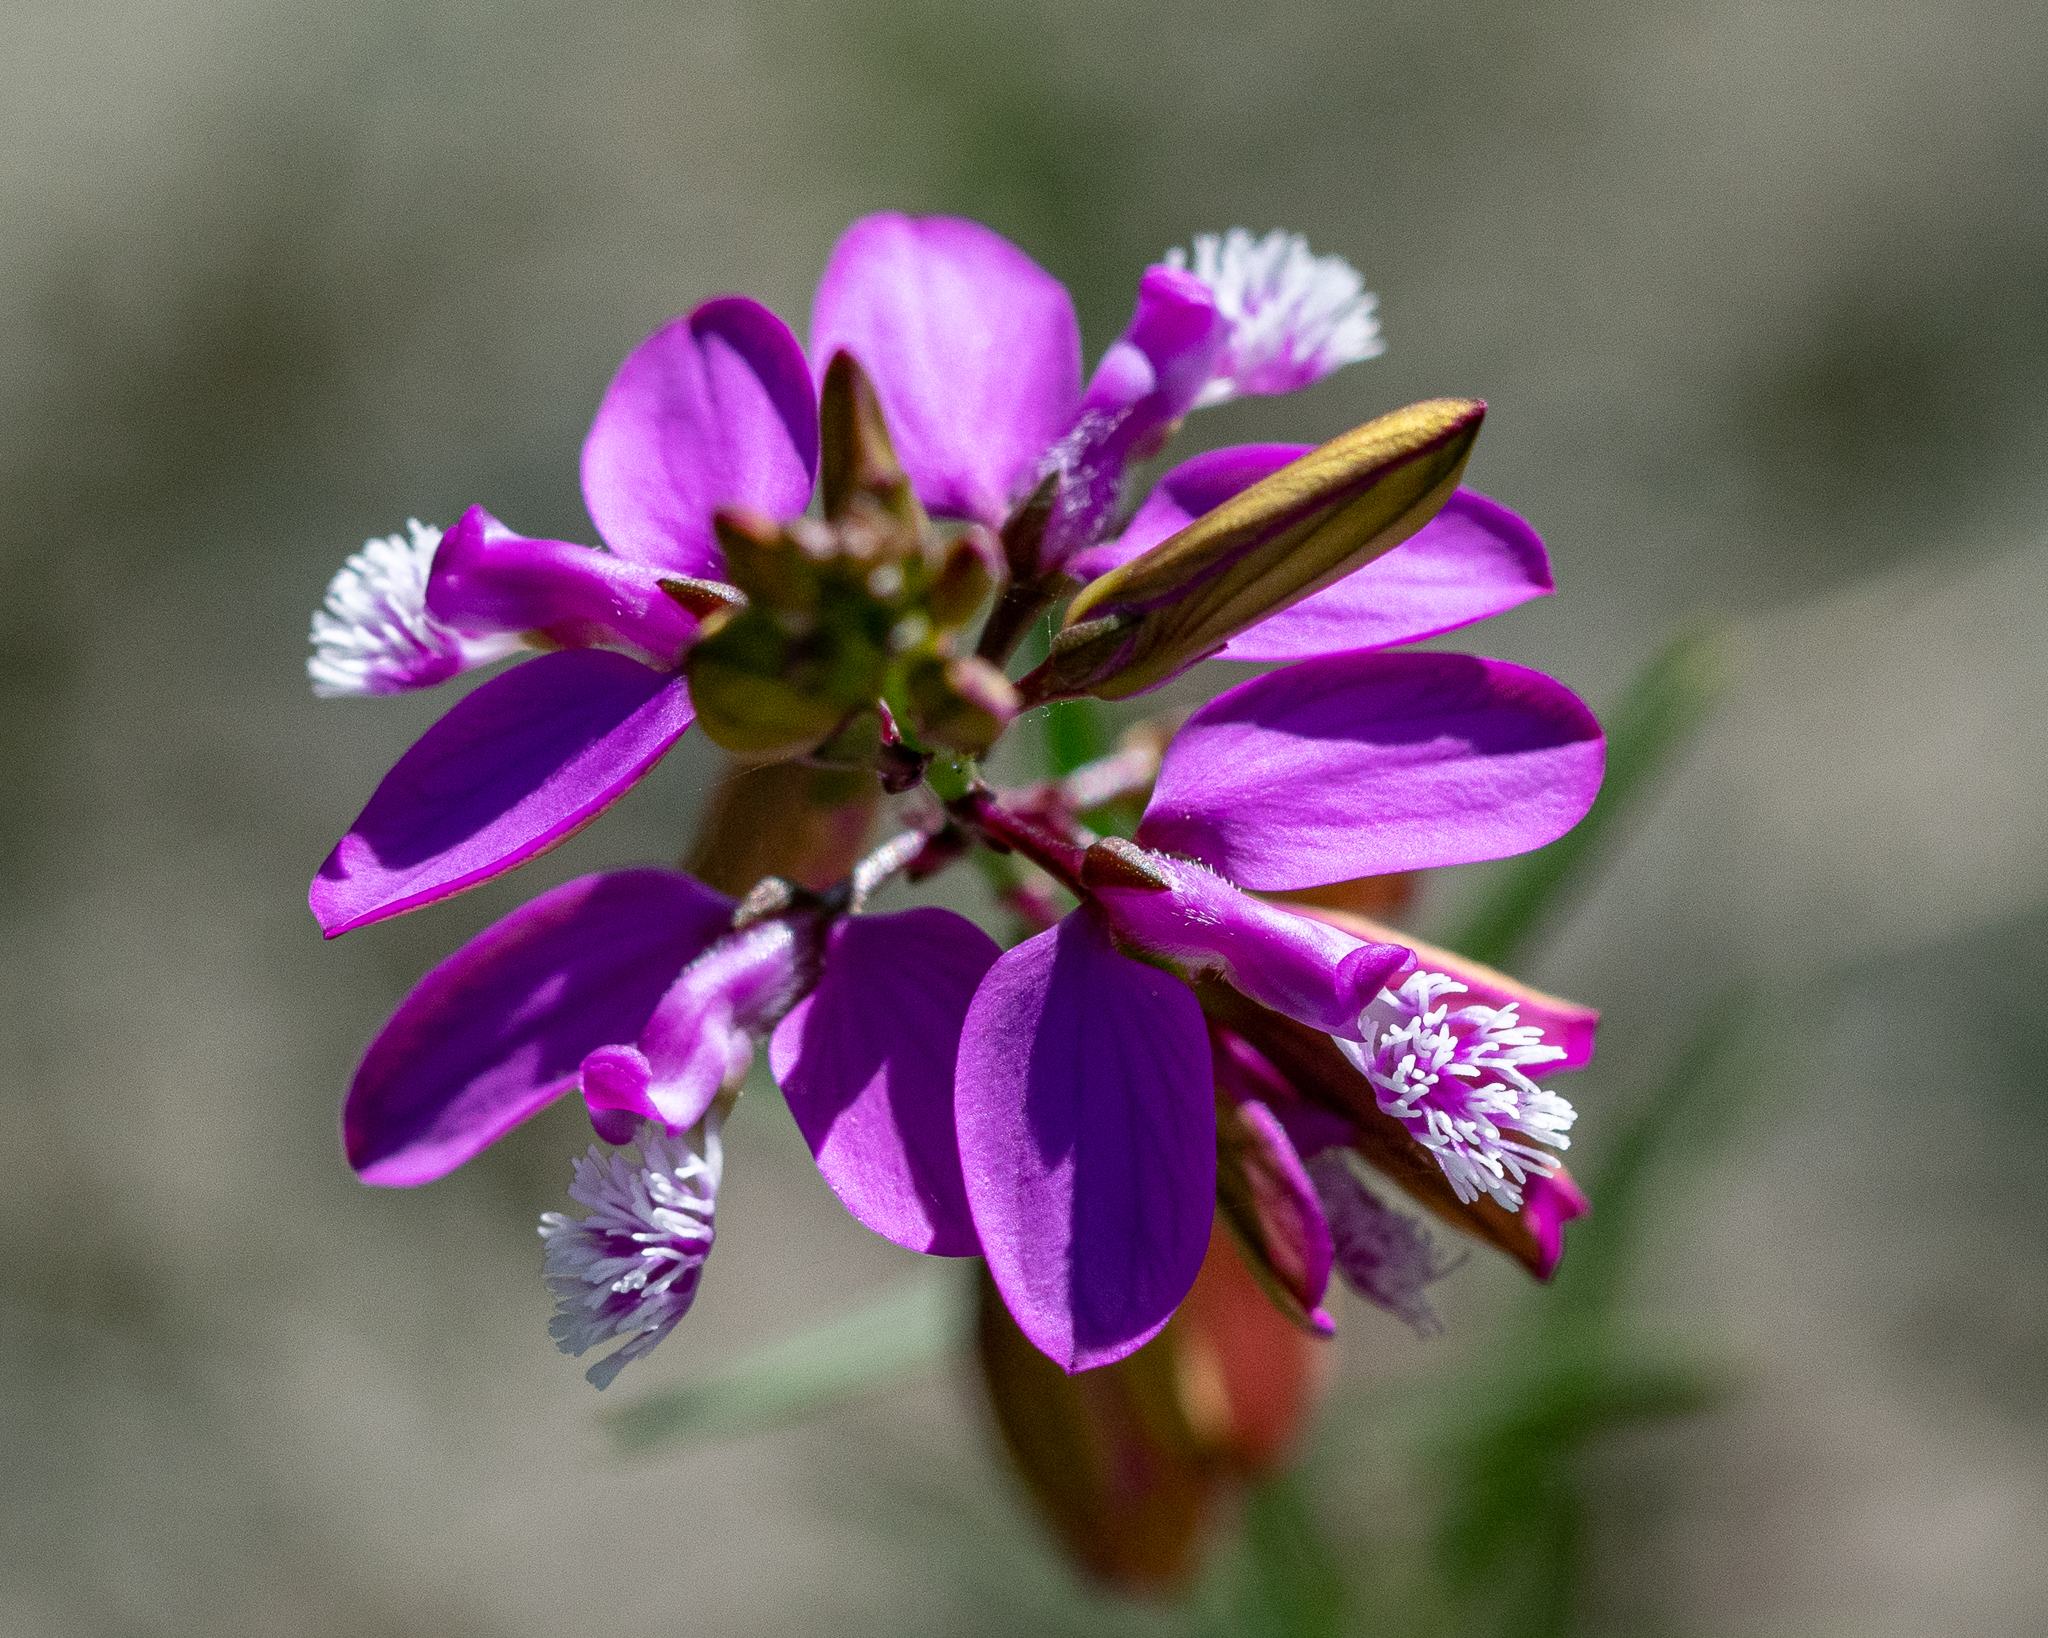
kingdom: Plantae
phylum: Tracheophyta
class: Magnoliopsida
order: Fabales
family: Polygalaceae
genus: Polygala
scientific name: Polygala garcini
